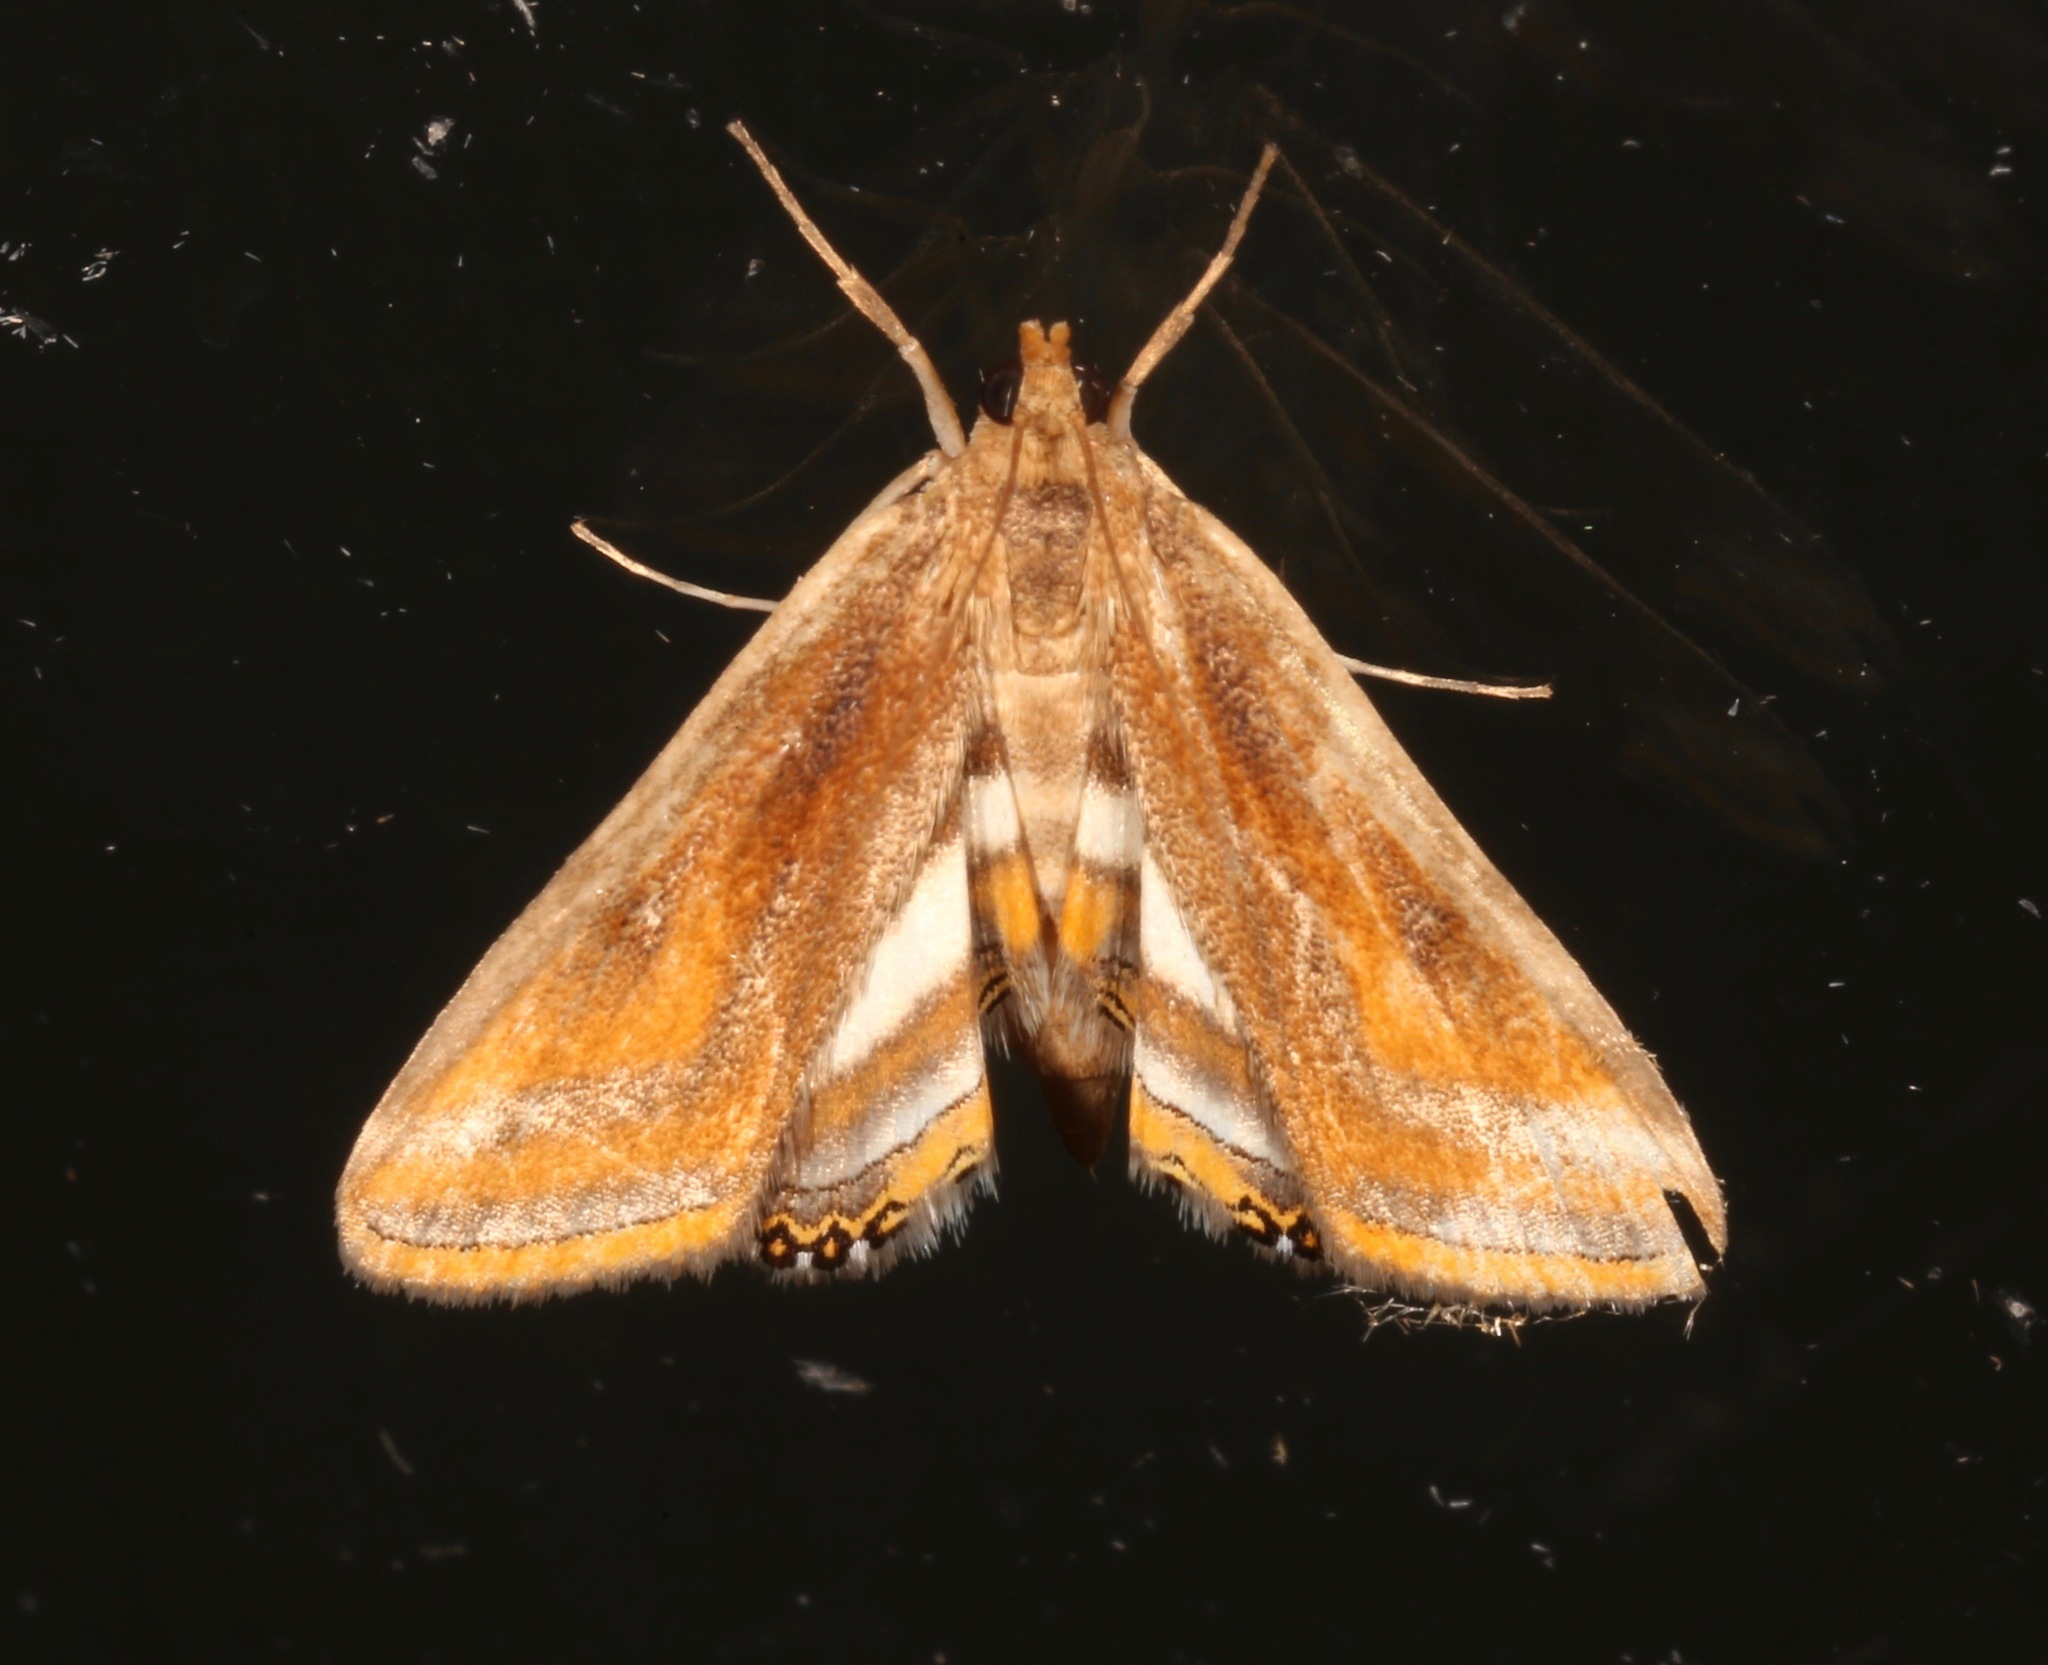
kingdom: Animalia
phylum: Arthropoda
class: Insecta
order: Lepidoptera
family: Crambidae
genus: Parapoynx
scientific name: Parapoynx seminealis
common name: Floating-heart waterlily leafcutter
